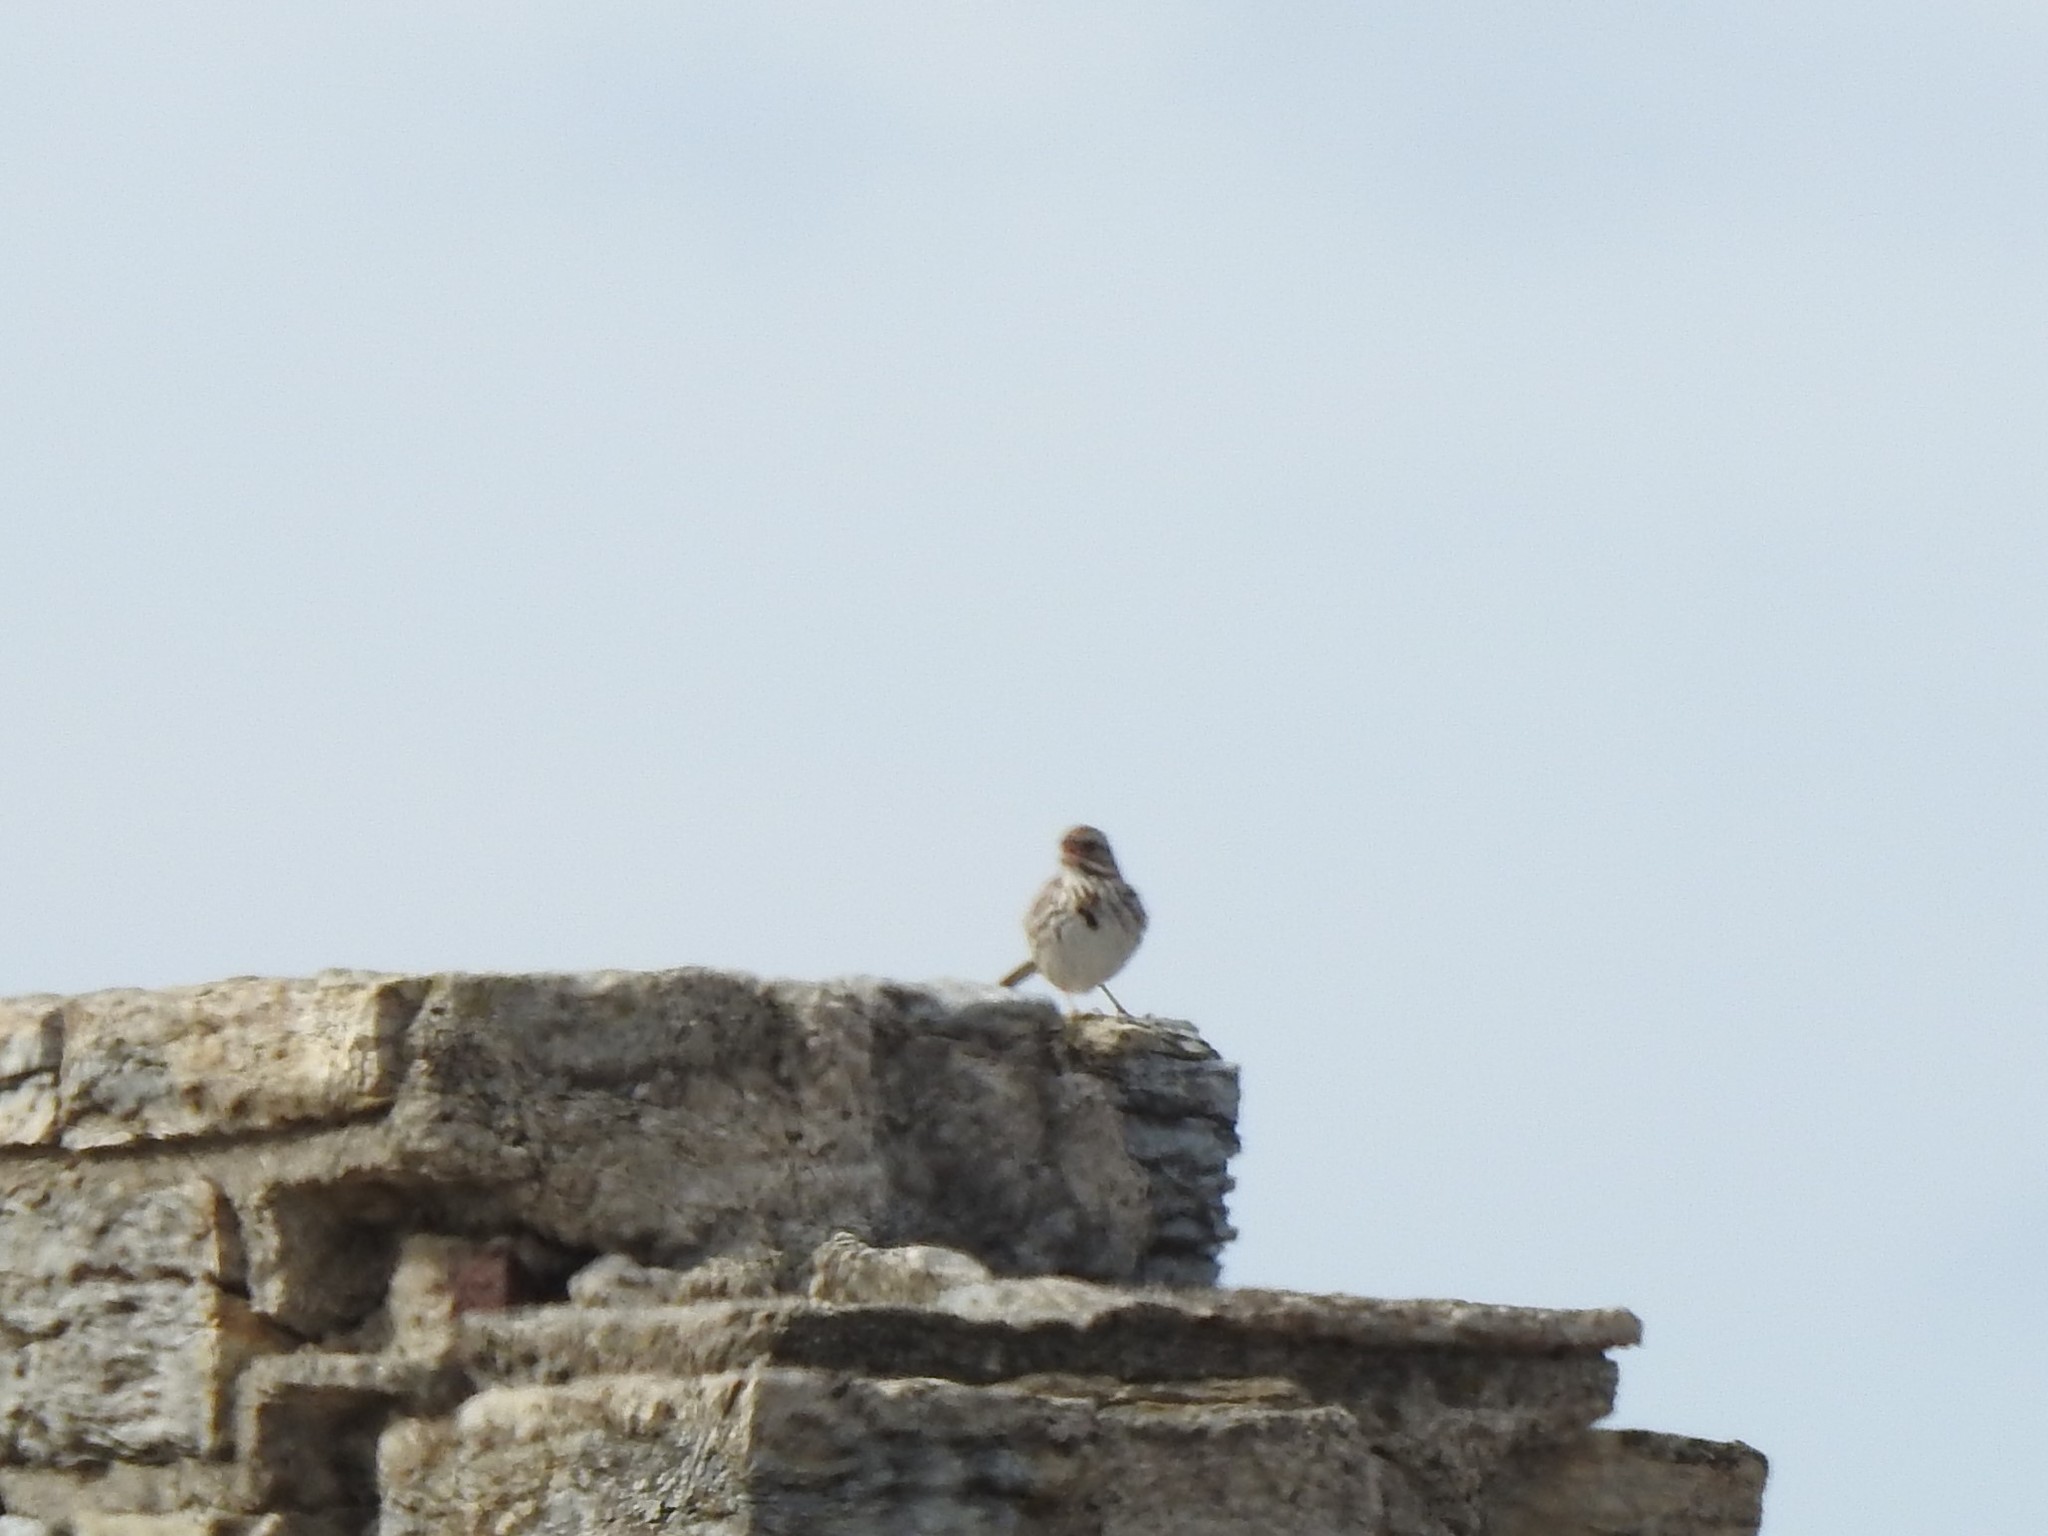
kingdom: Animalia
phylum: Chordata
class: Aves
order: Passeriformes
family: Passerellidae
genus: Melospiza
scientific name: Melospiza melodia
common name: Song sparrow
